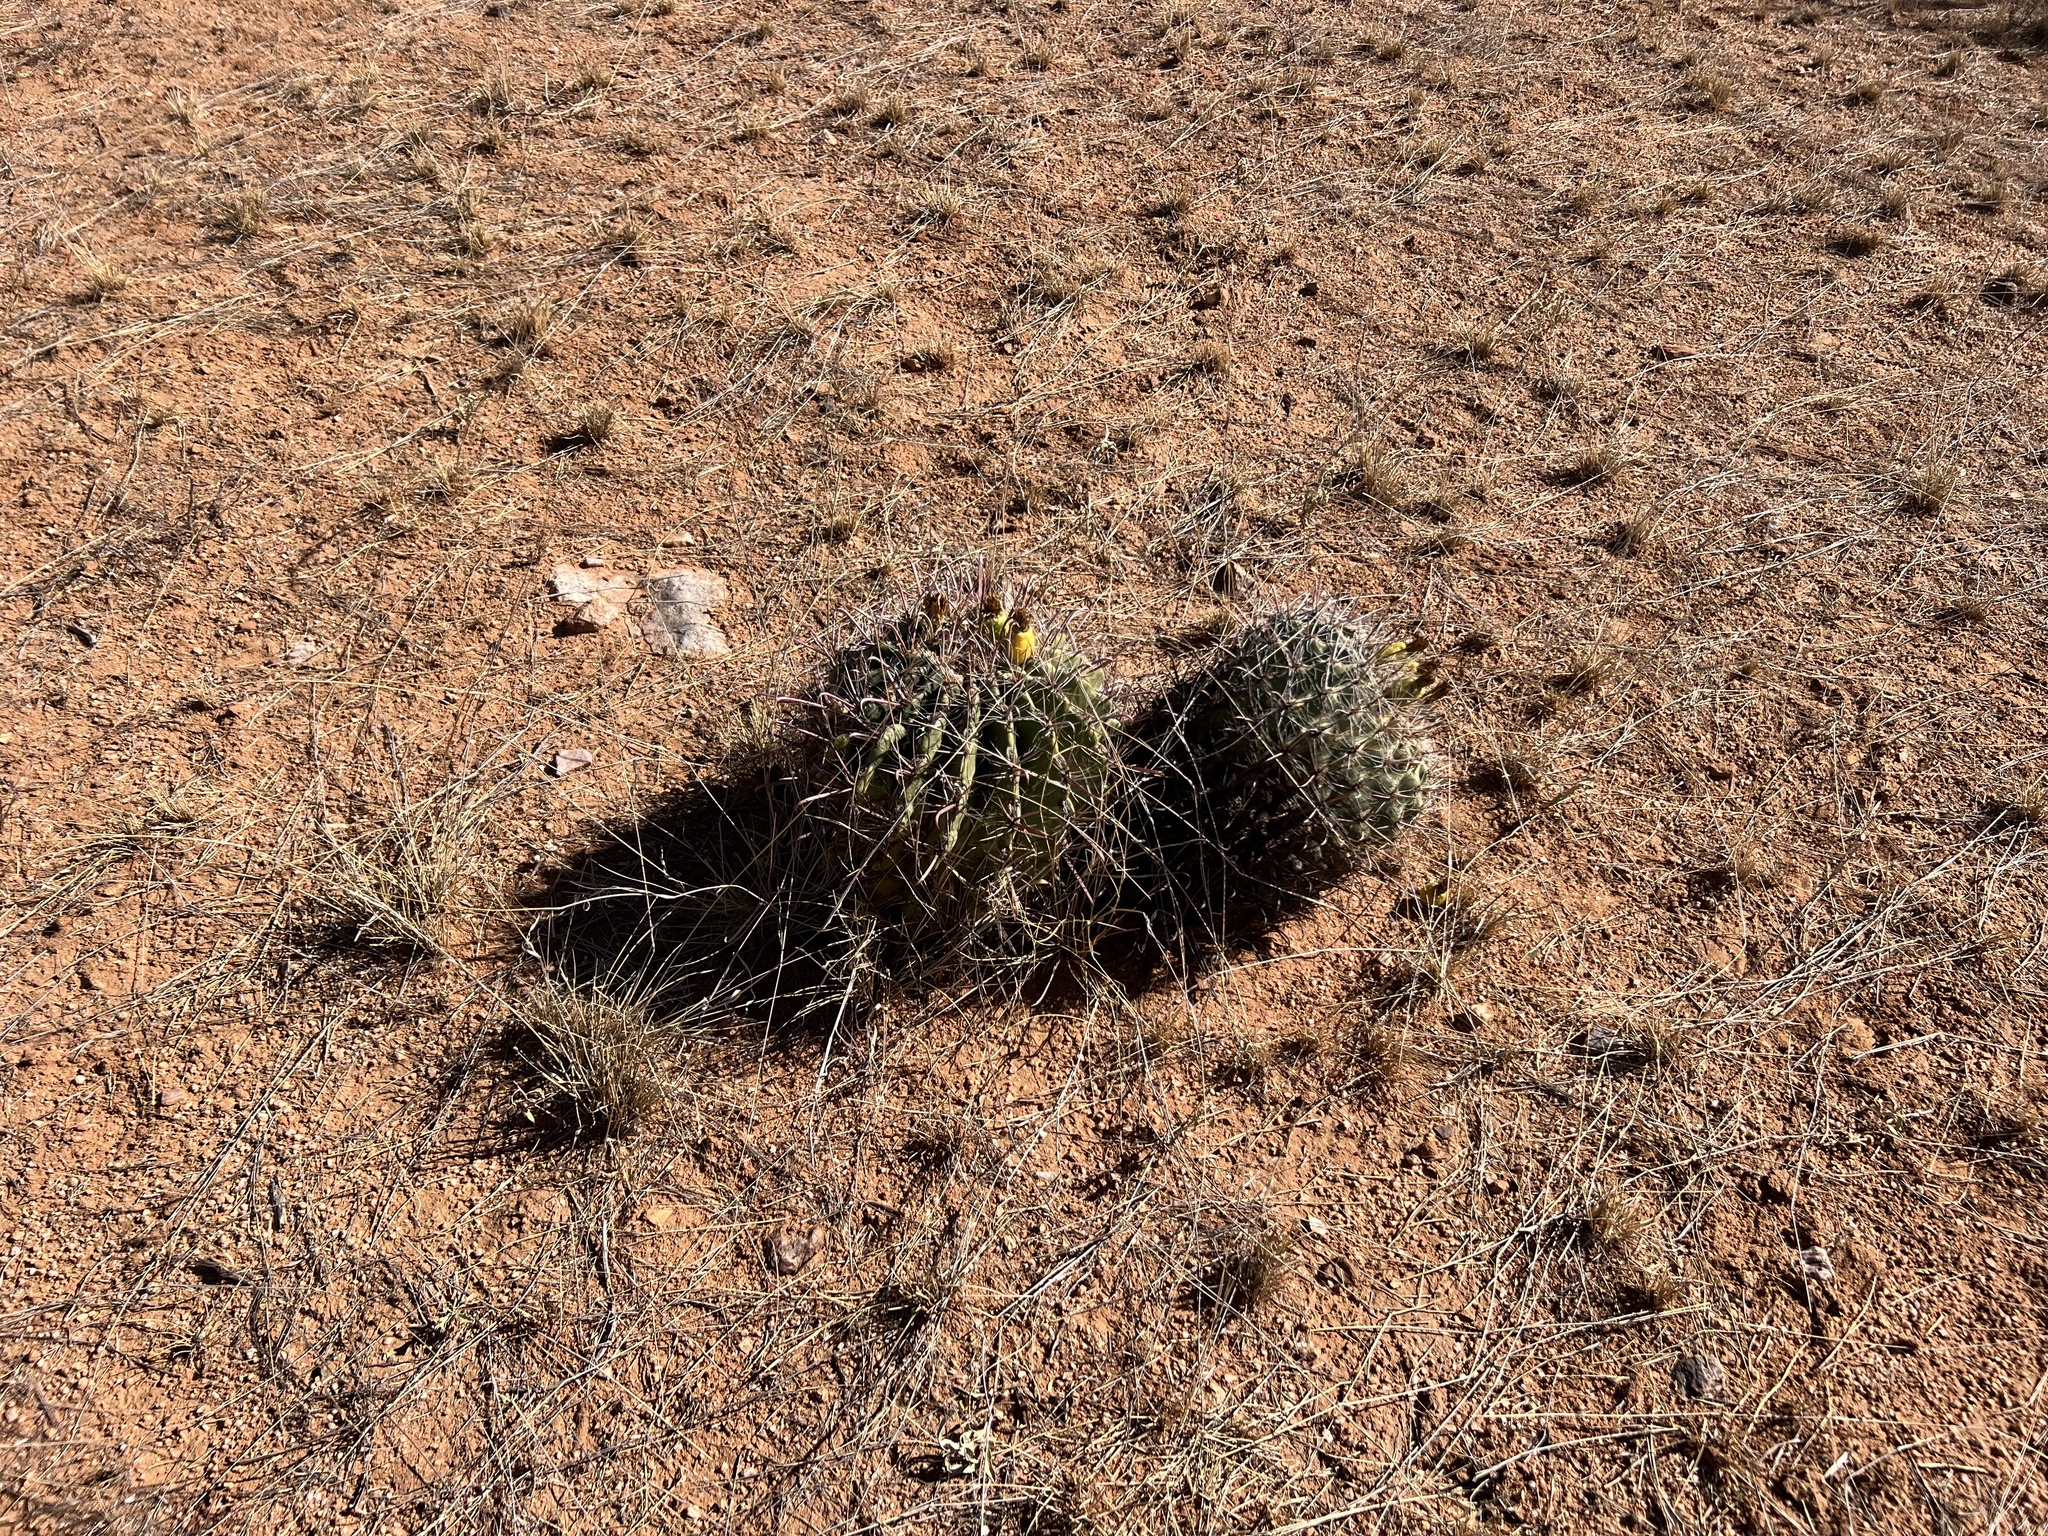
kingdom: Plantae
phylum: Tracheophyta
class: Magnoliopsida
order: Caryophyllales
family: Cactaceae
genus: Ferocactus
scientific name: Ferocactus wislizeni
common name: Candy barrel cactus
